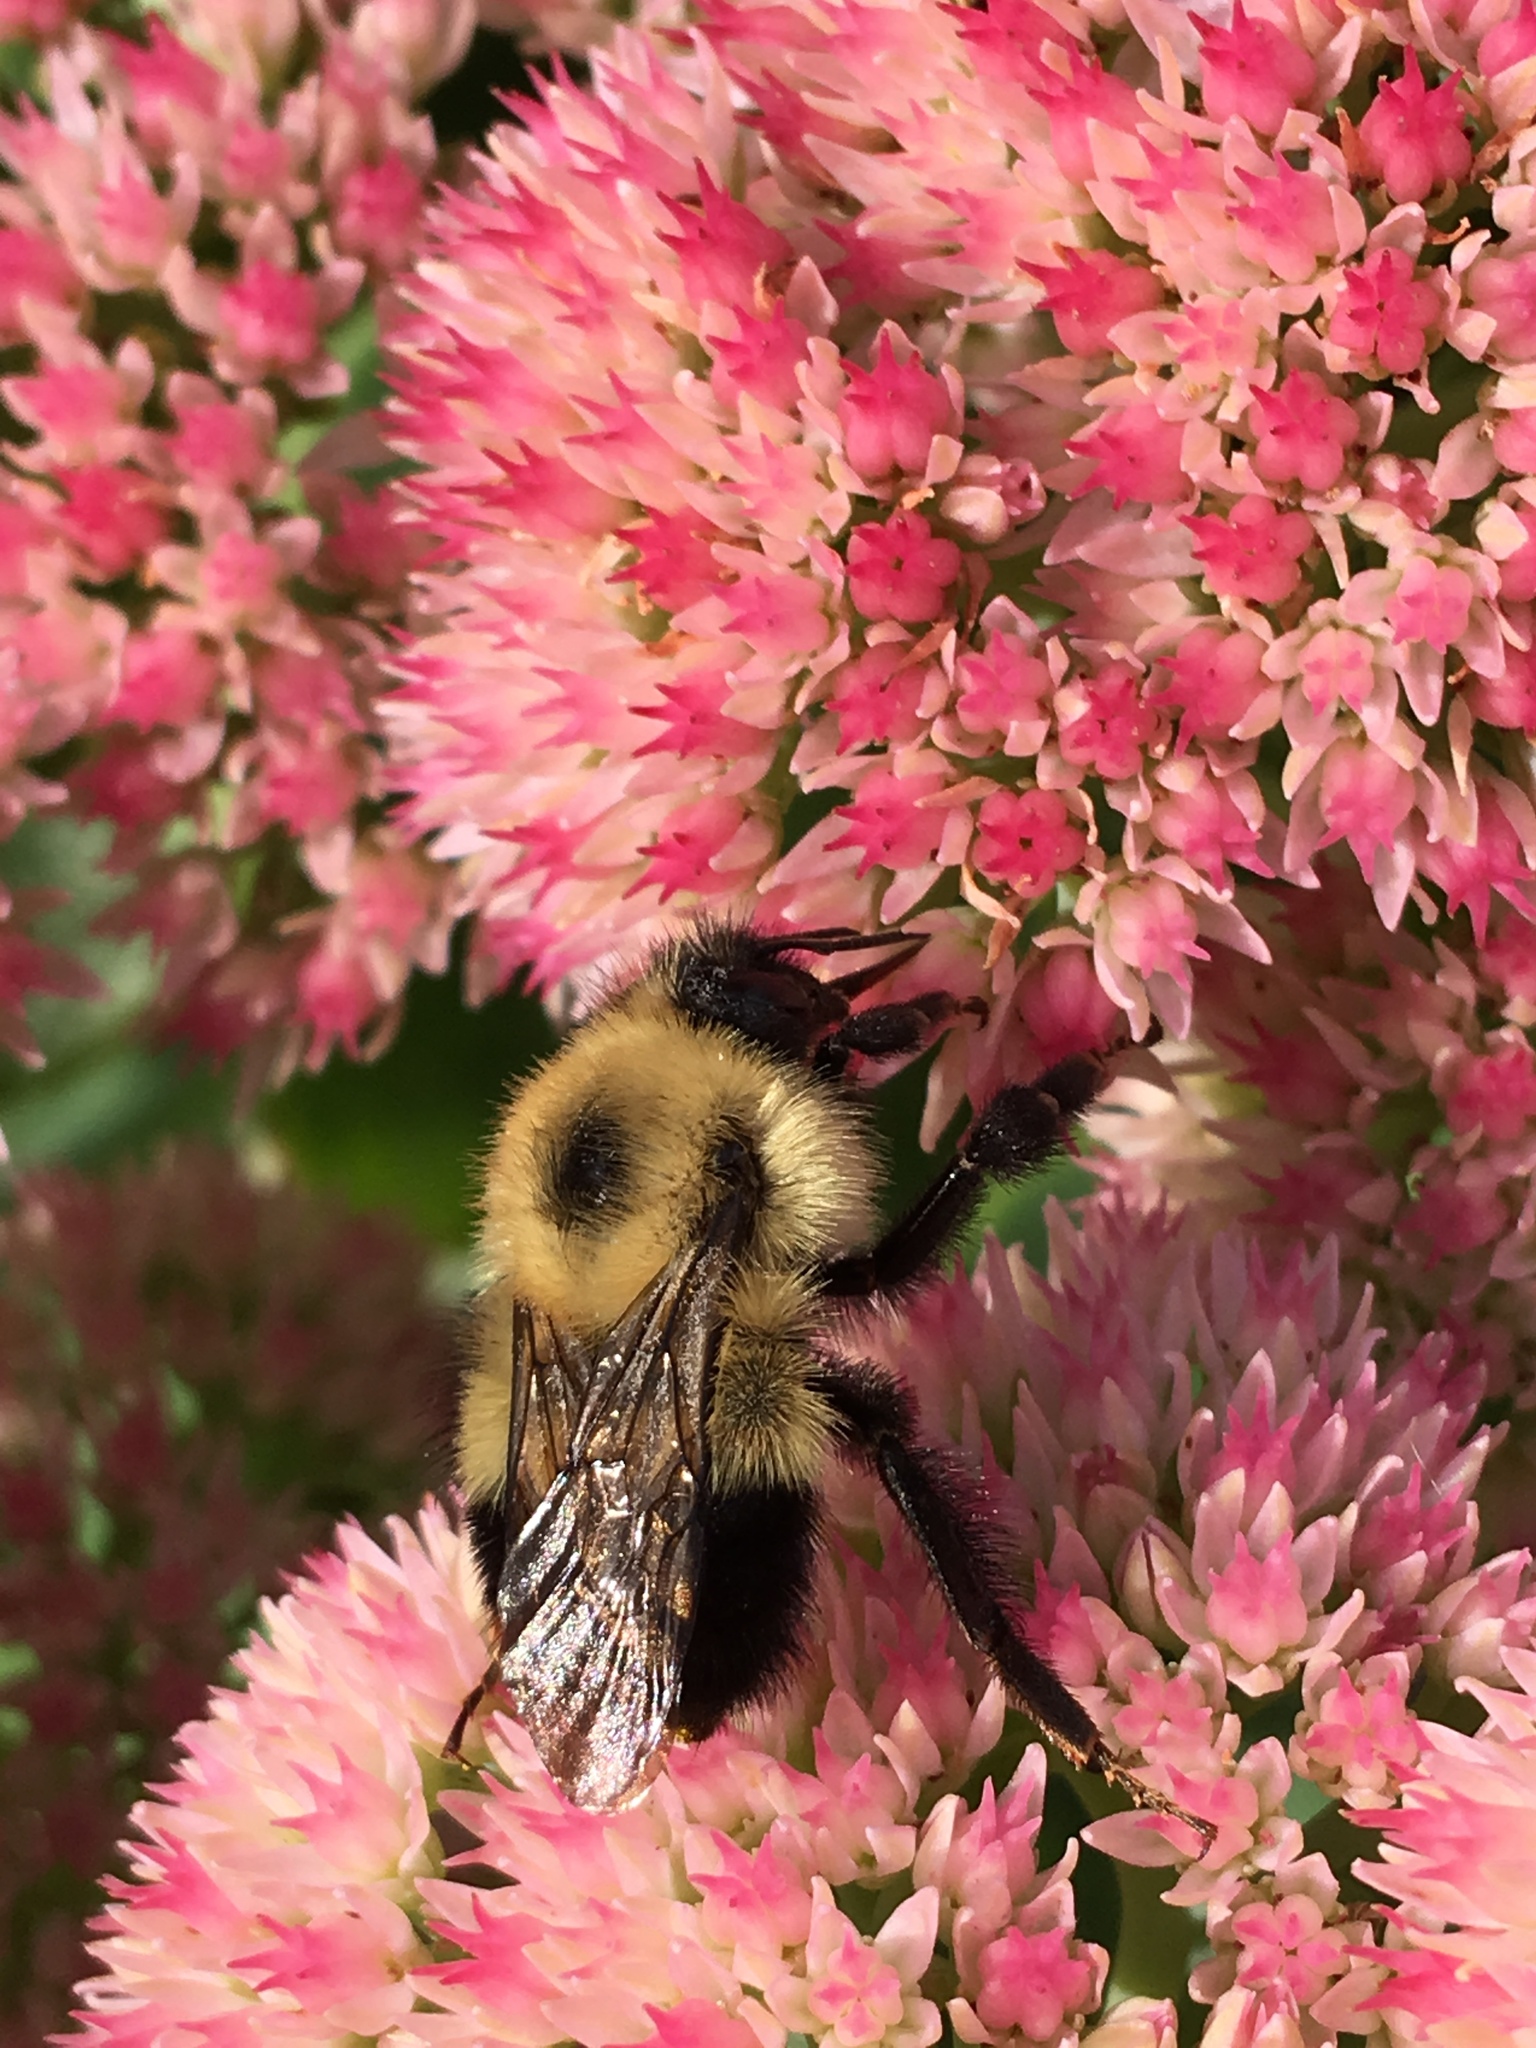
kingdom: Animalia
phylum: Arthropoda
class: Insecta
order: Hymenoptera
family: Apidae
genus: Bombus
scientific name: Bombus vagans
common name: Half-black bumble bee
